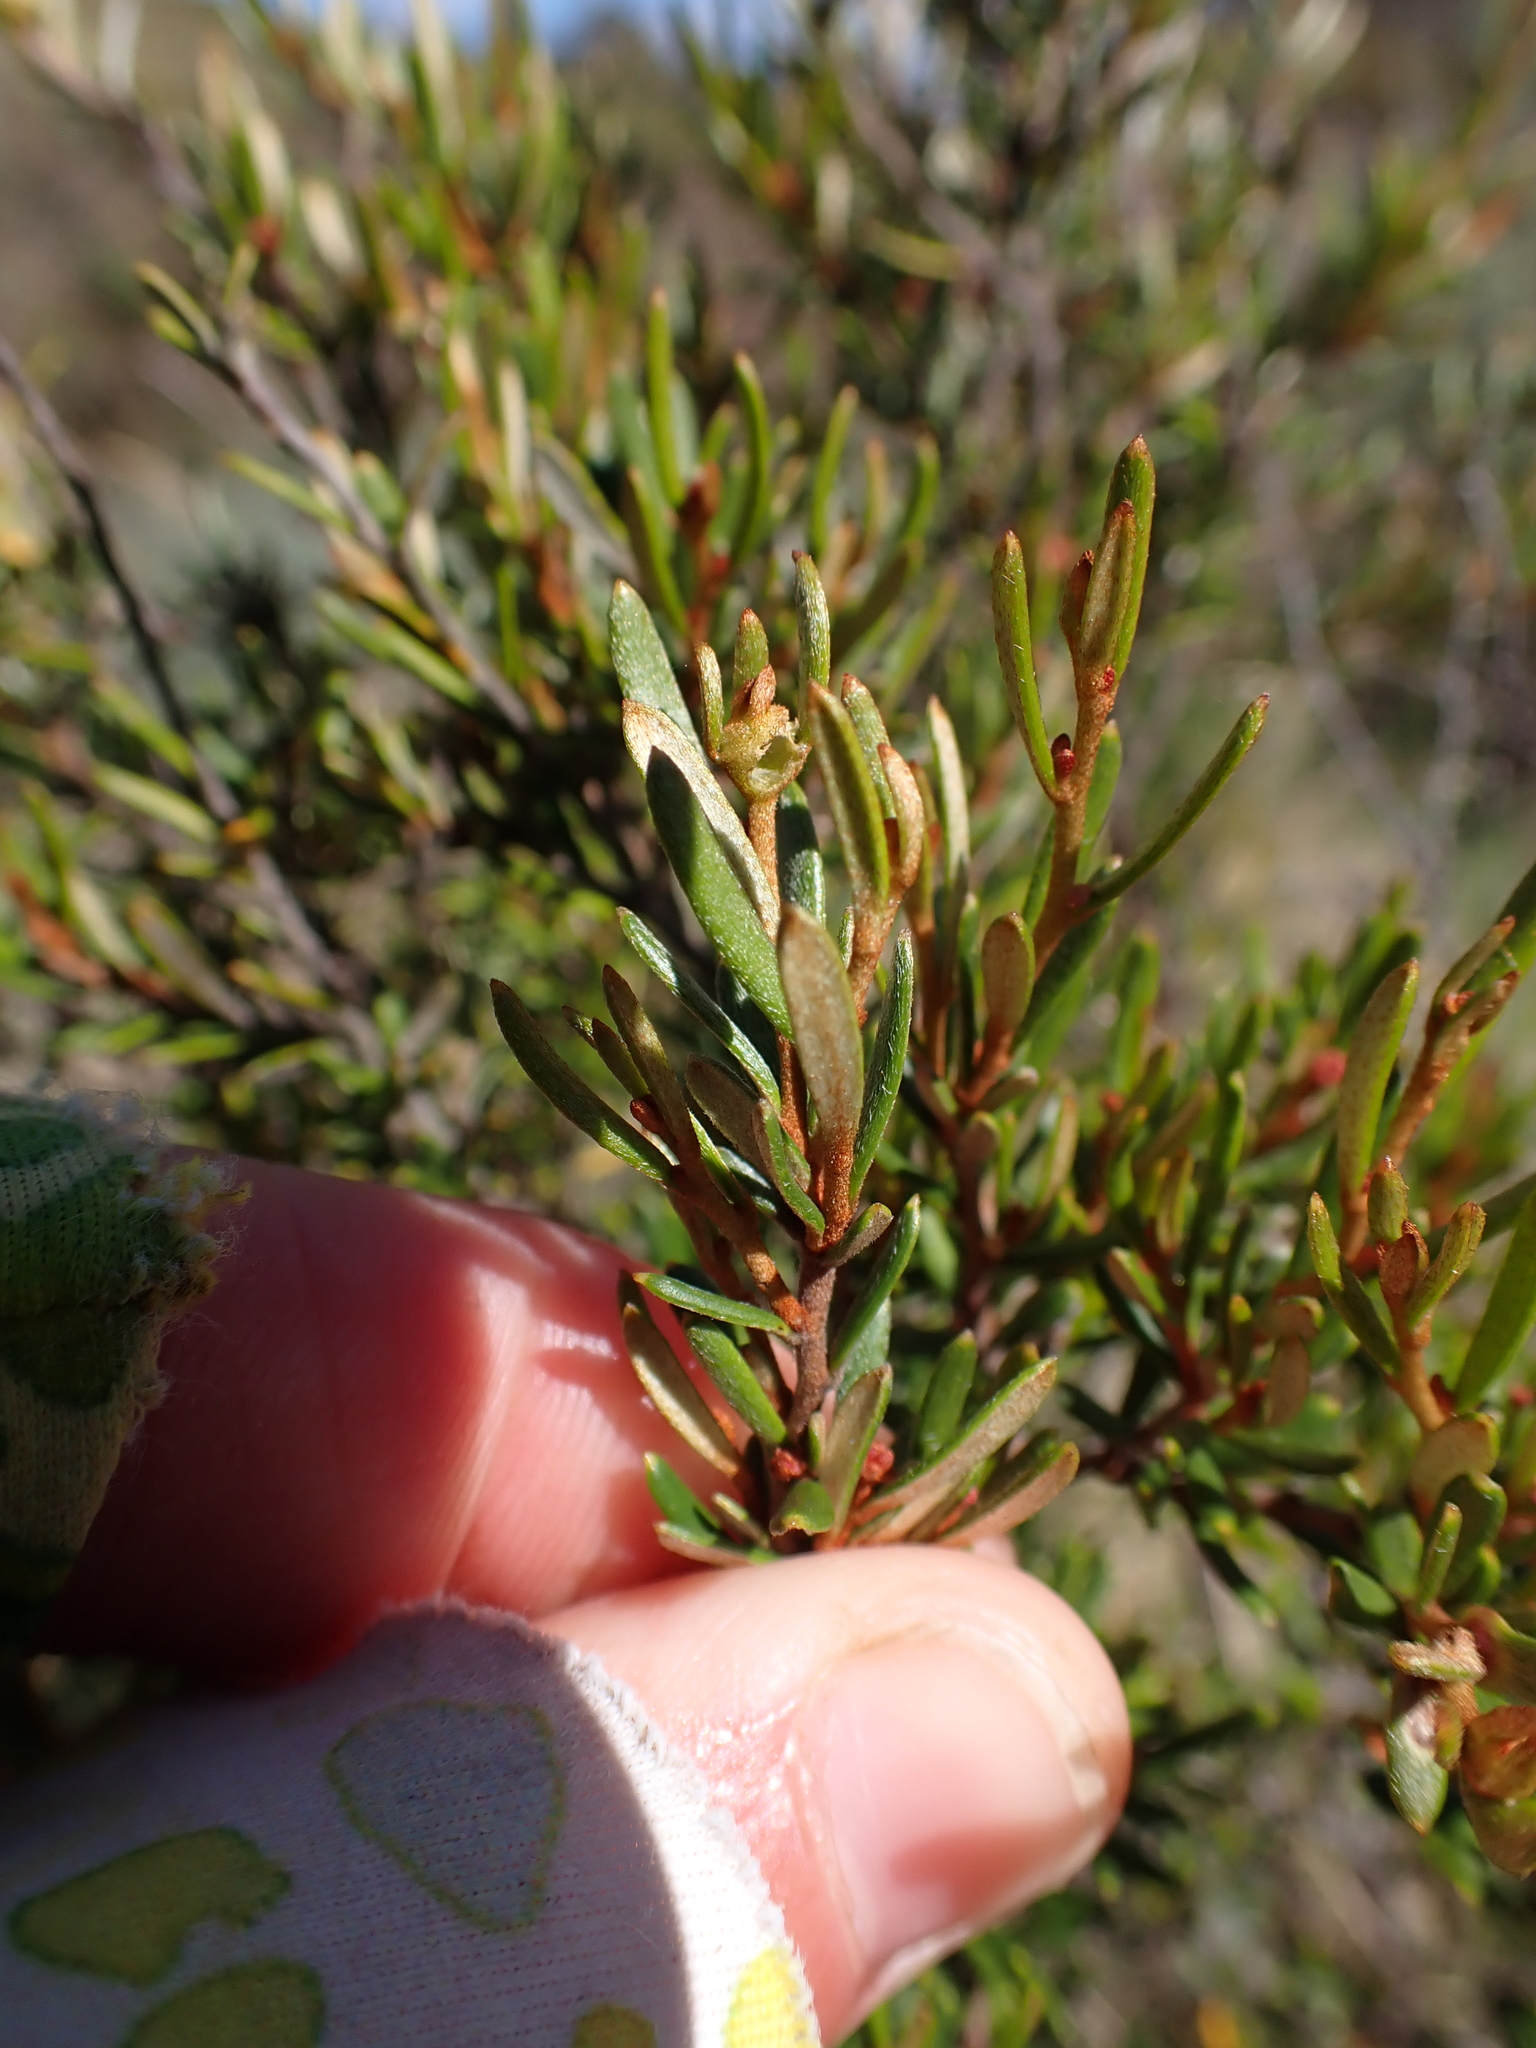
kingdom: Plantae
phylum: Tracheophyta
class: Magnoliopsida
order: Proteales
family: Proteaceae
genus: Grevillea
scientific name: Grevillea australis
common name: Alpine grevillea
